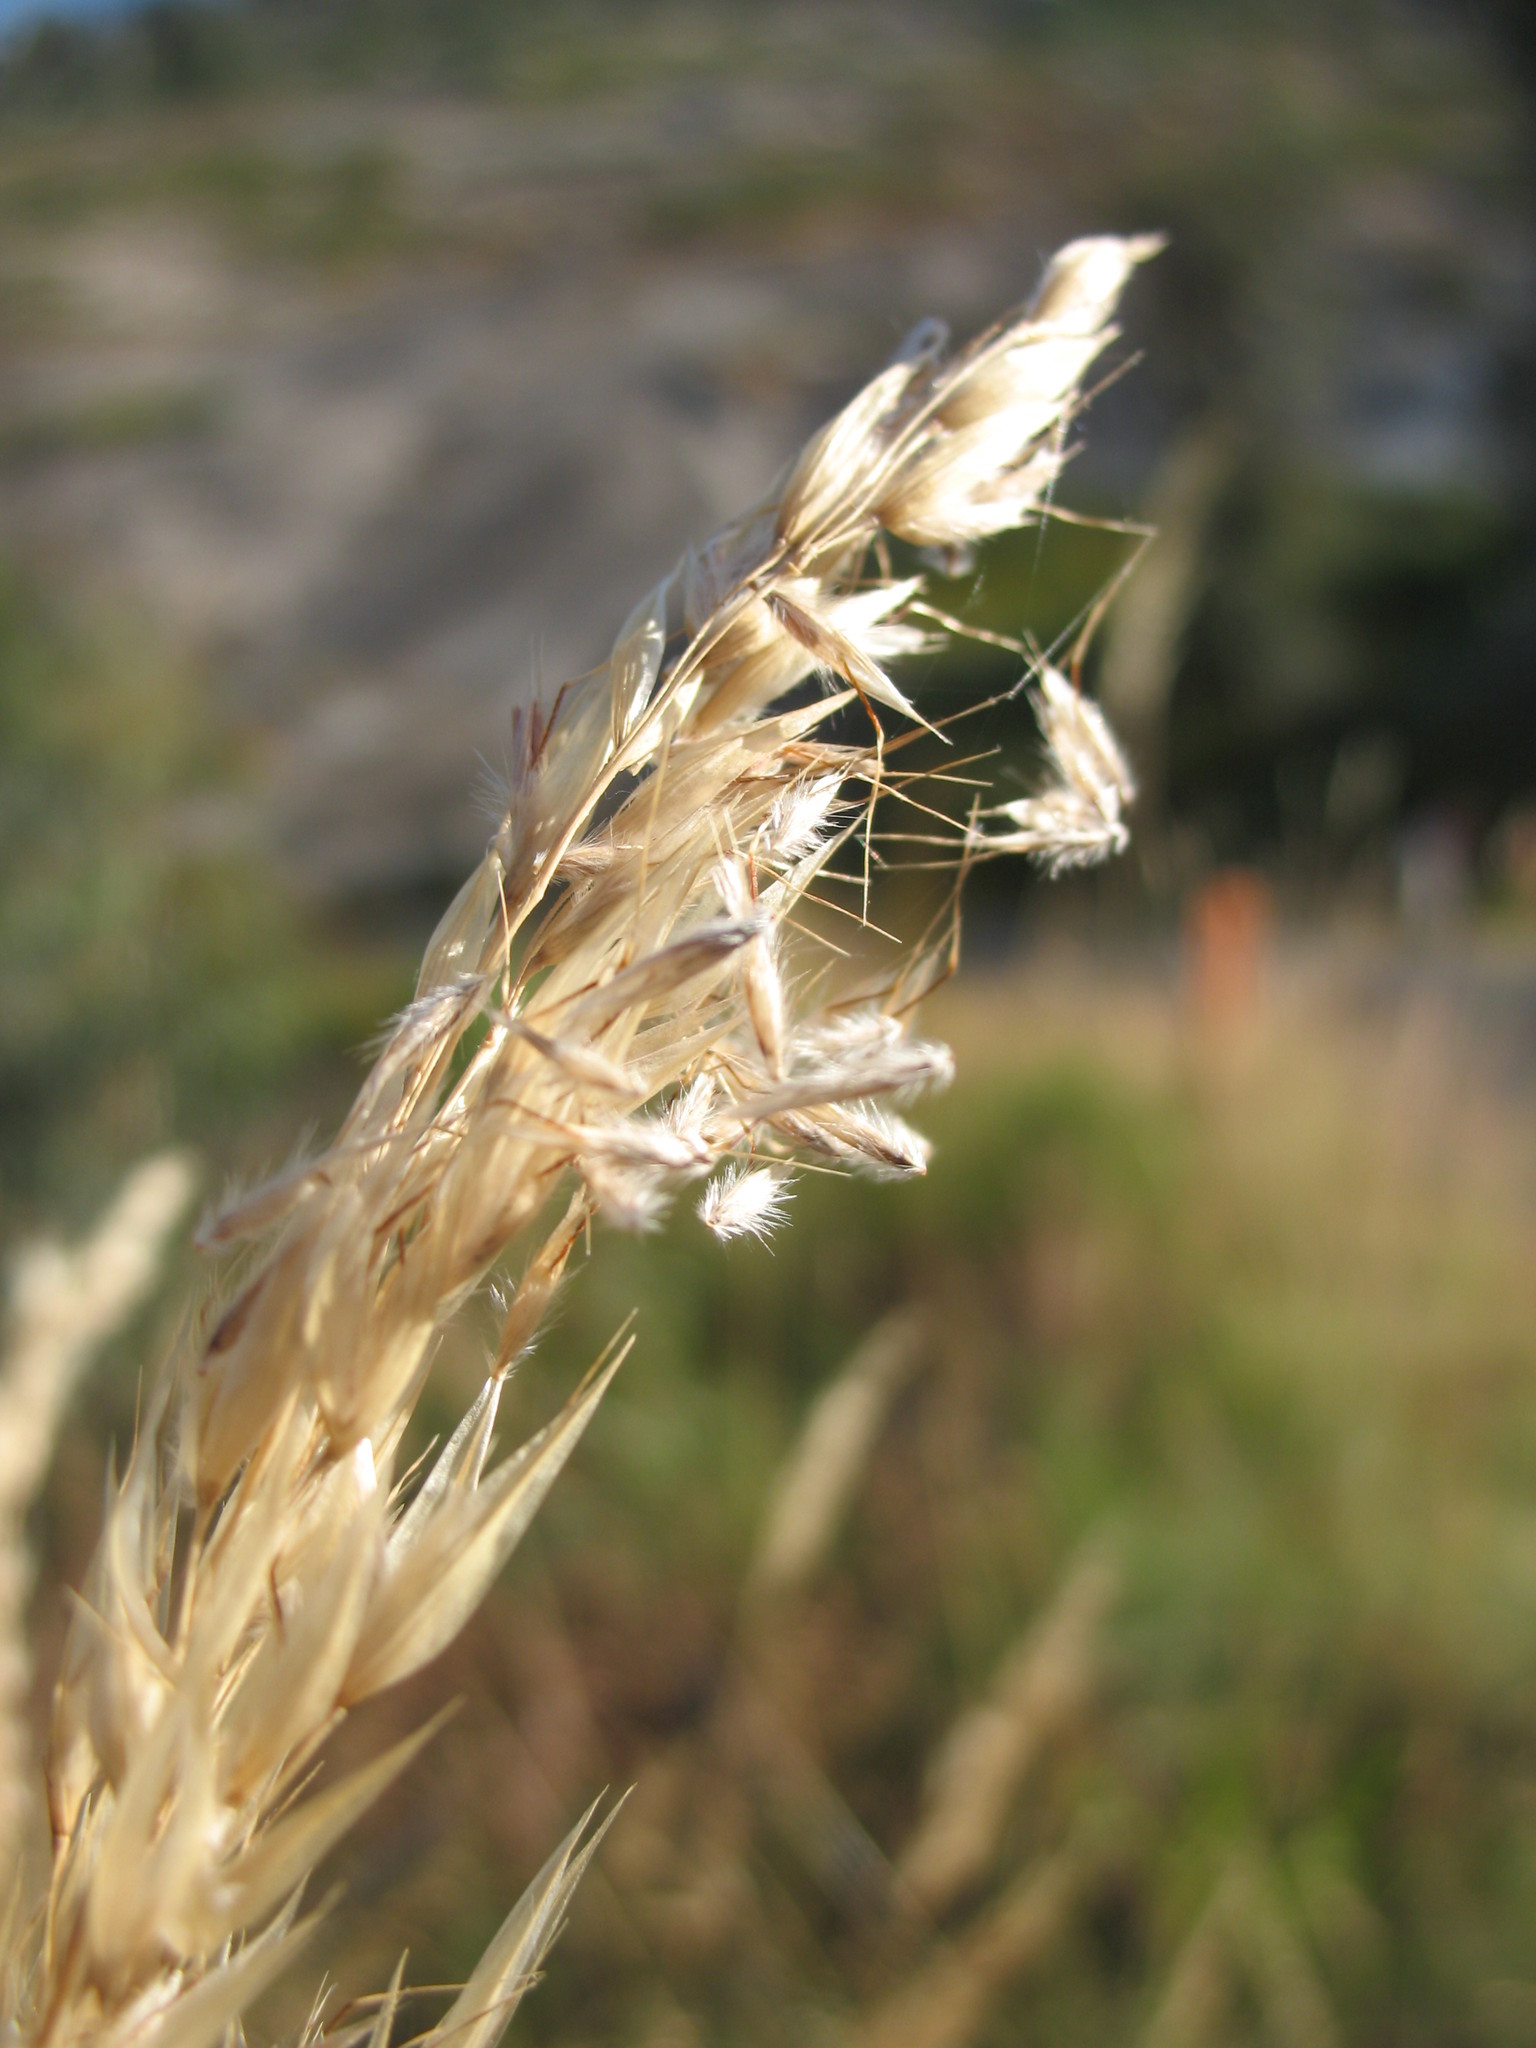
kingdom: Plantae
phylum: Tracheophyta
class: Liliopsida
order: Poales
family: Poaceae
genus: Rytidosperma
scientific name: Rytidosperma pallidum
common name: Red-anther wallaby grass
